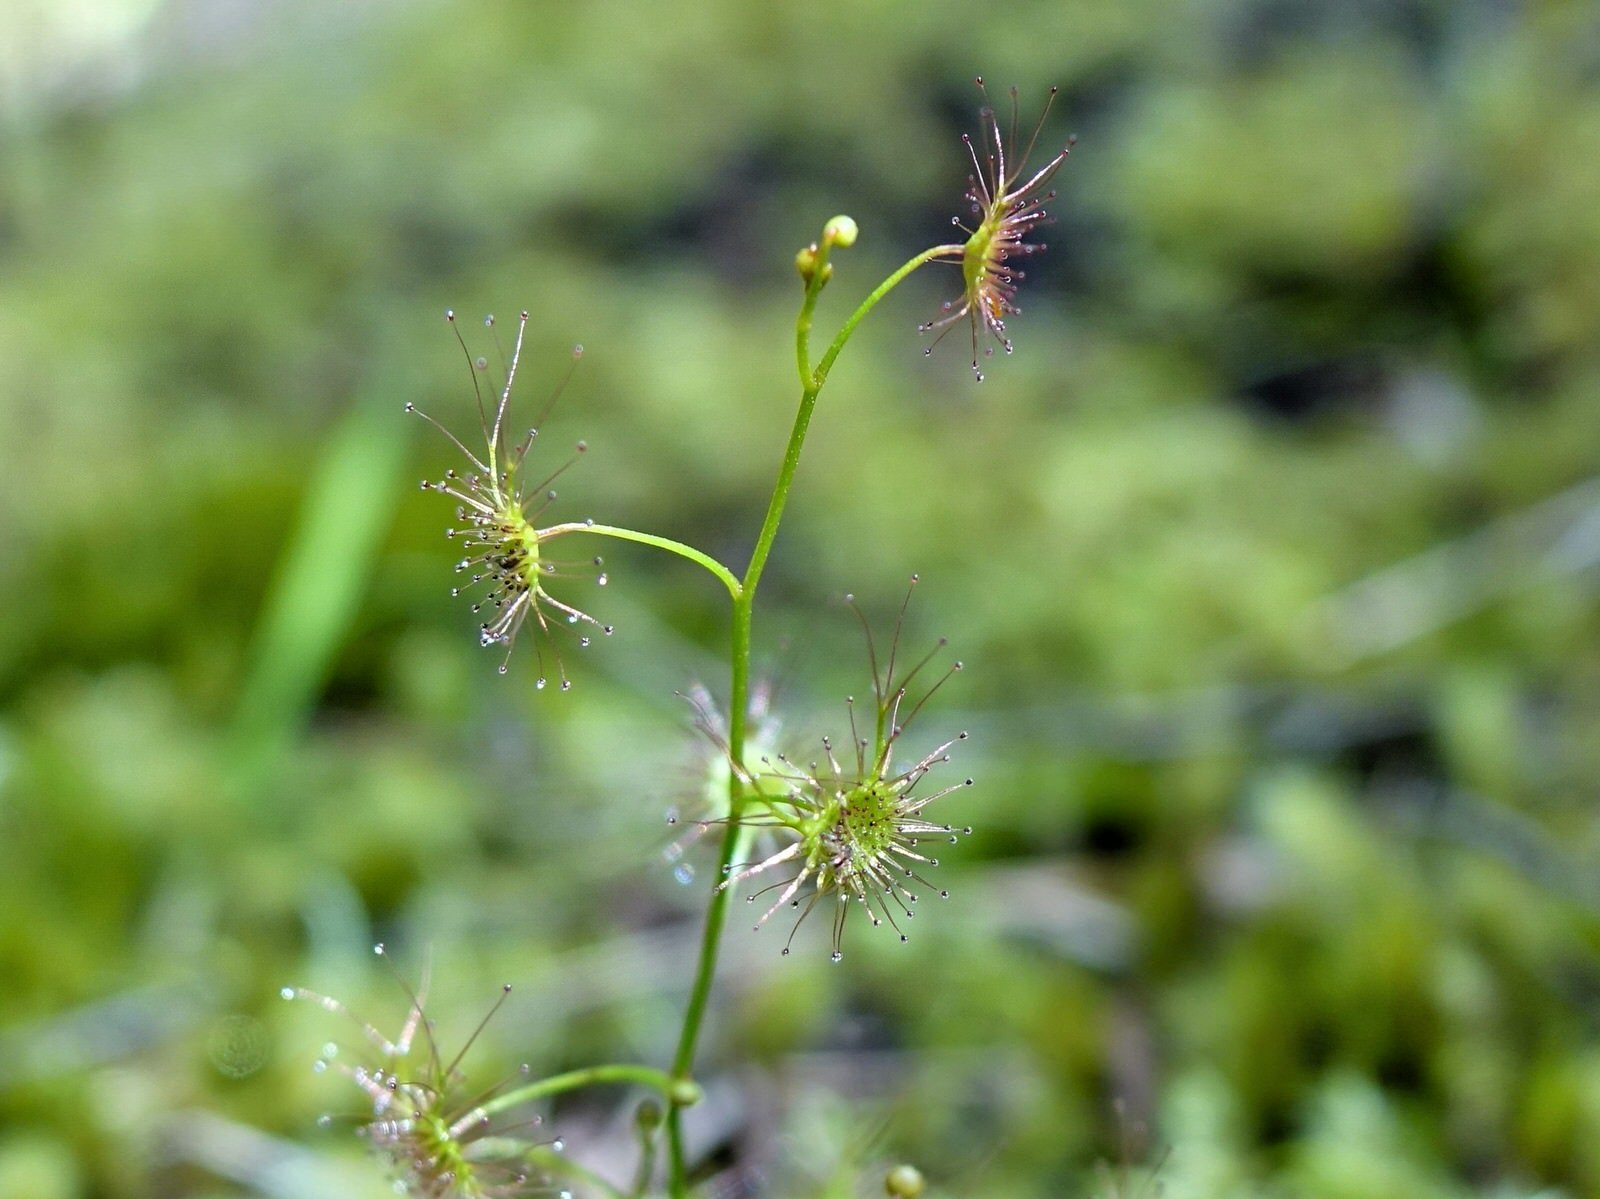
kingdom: Plantae
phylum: Tracheophyta
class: Magnoliopsida
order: Caryophyllales
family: Droseraceae
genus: Drosera
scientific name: Drosera peltata
